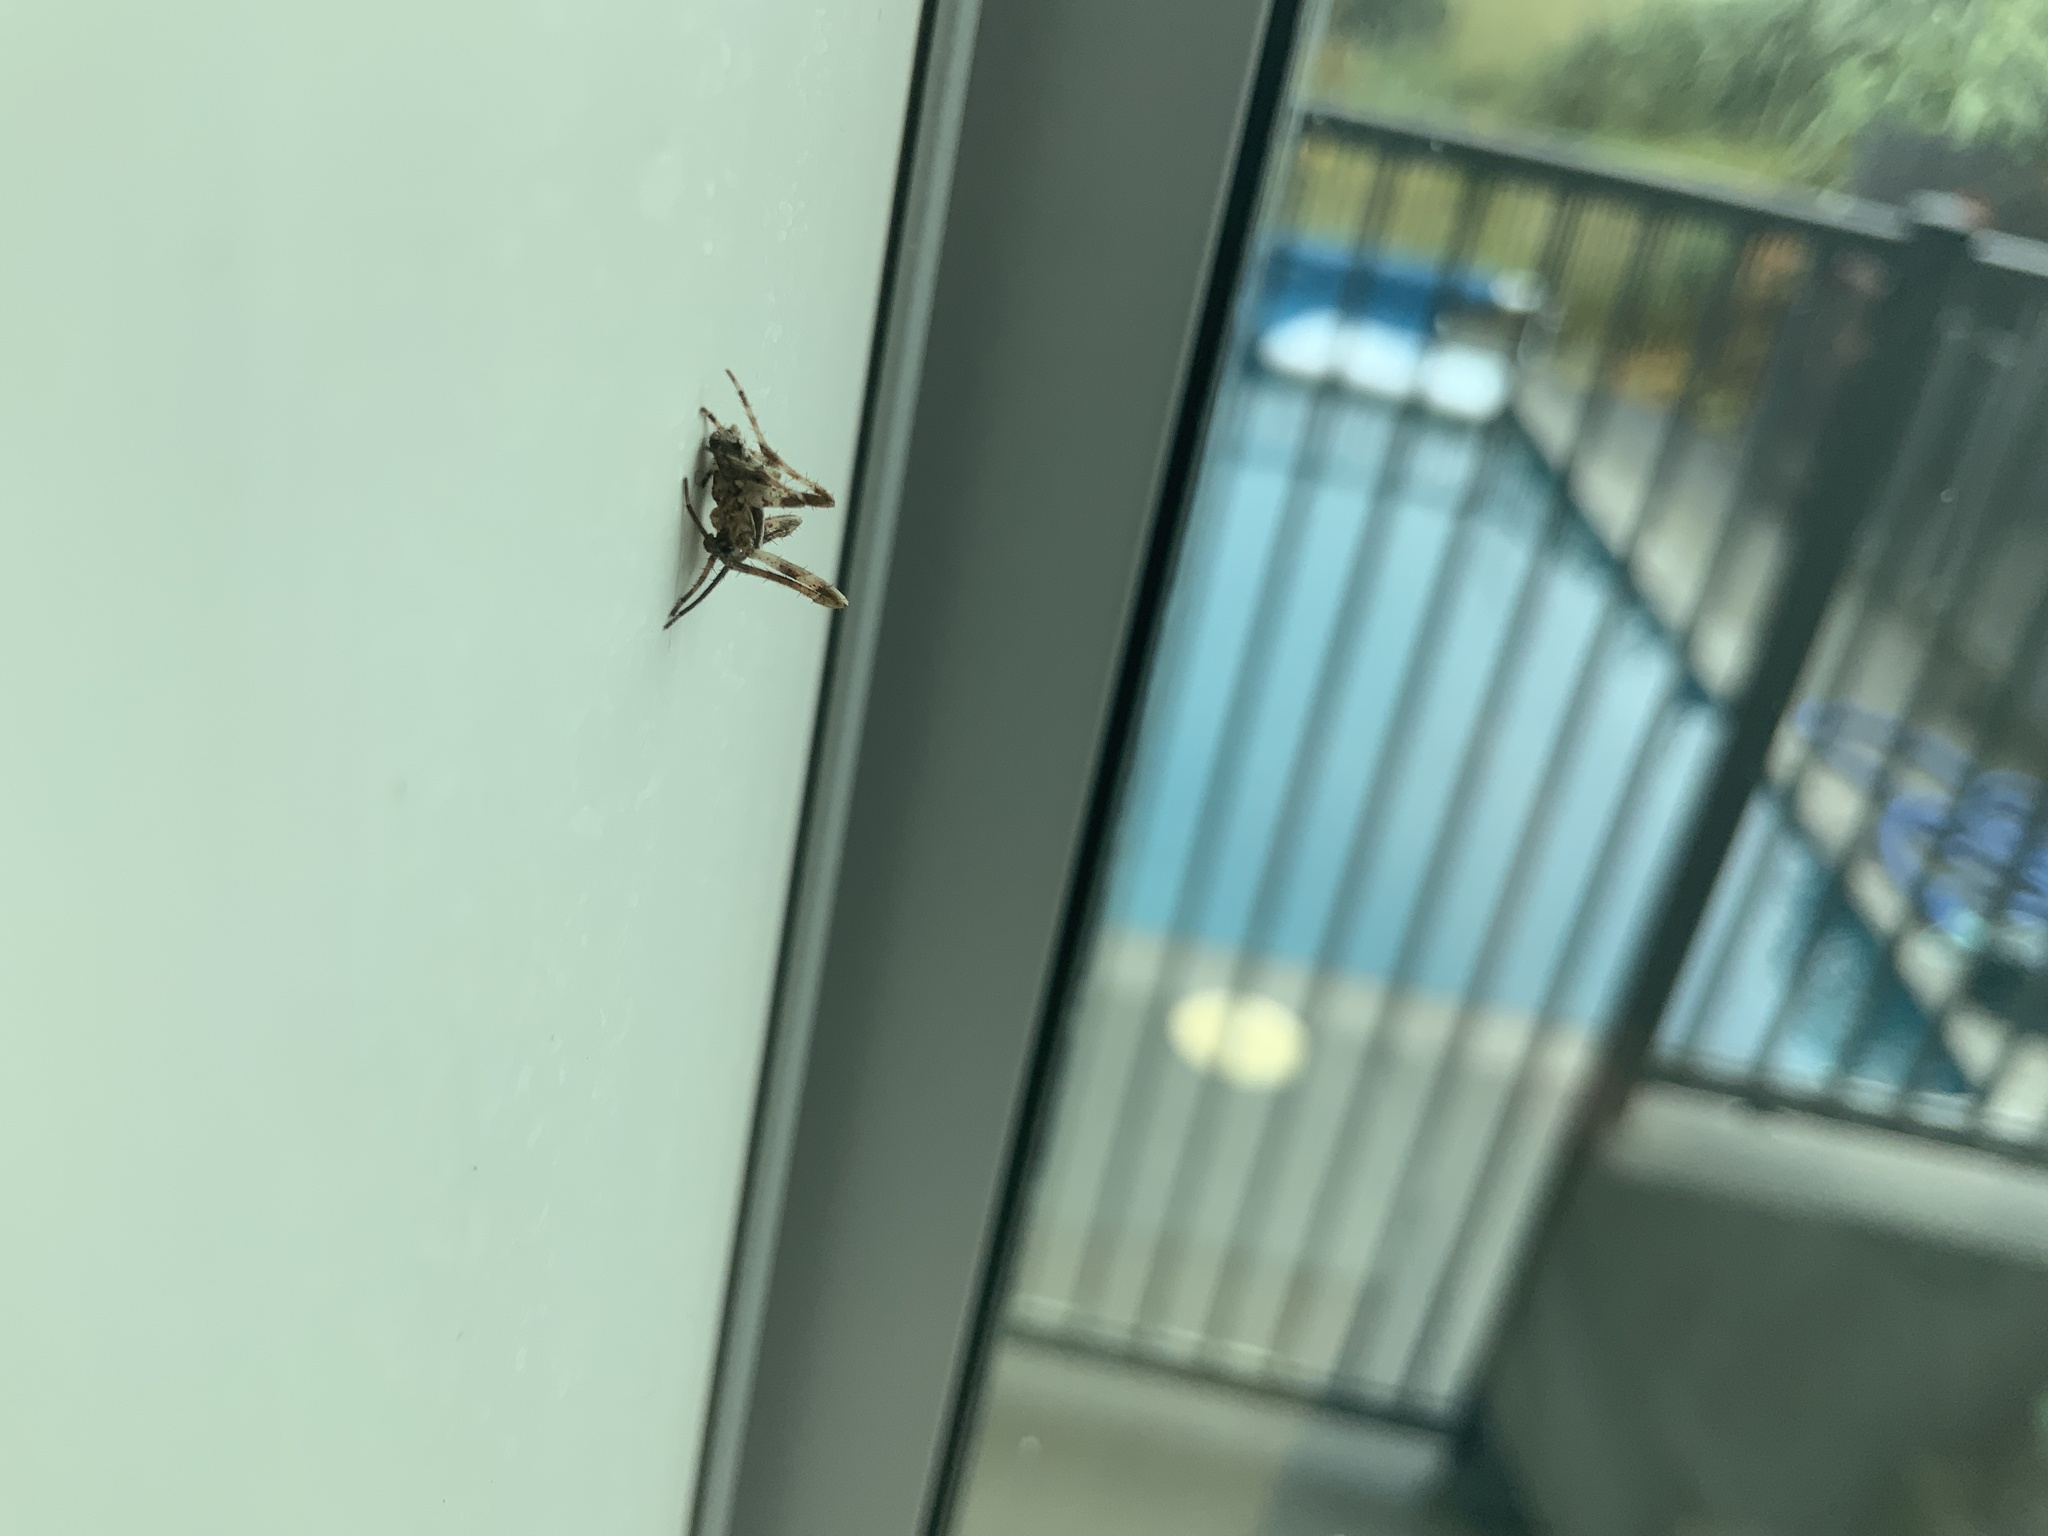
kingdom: Animalia
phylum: Arthropoda
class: Arachnida
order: Araneae
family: Araneidae
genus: Eriophora
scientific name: Eriophora pustulosa
